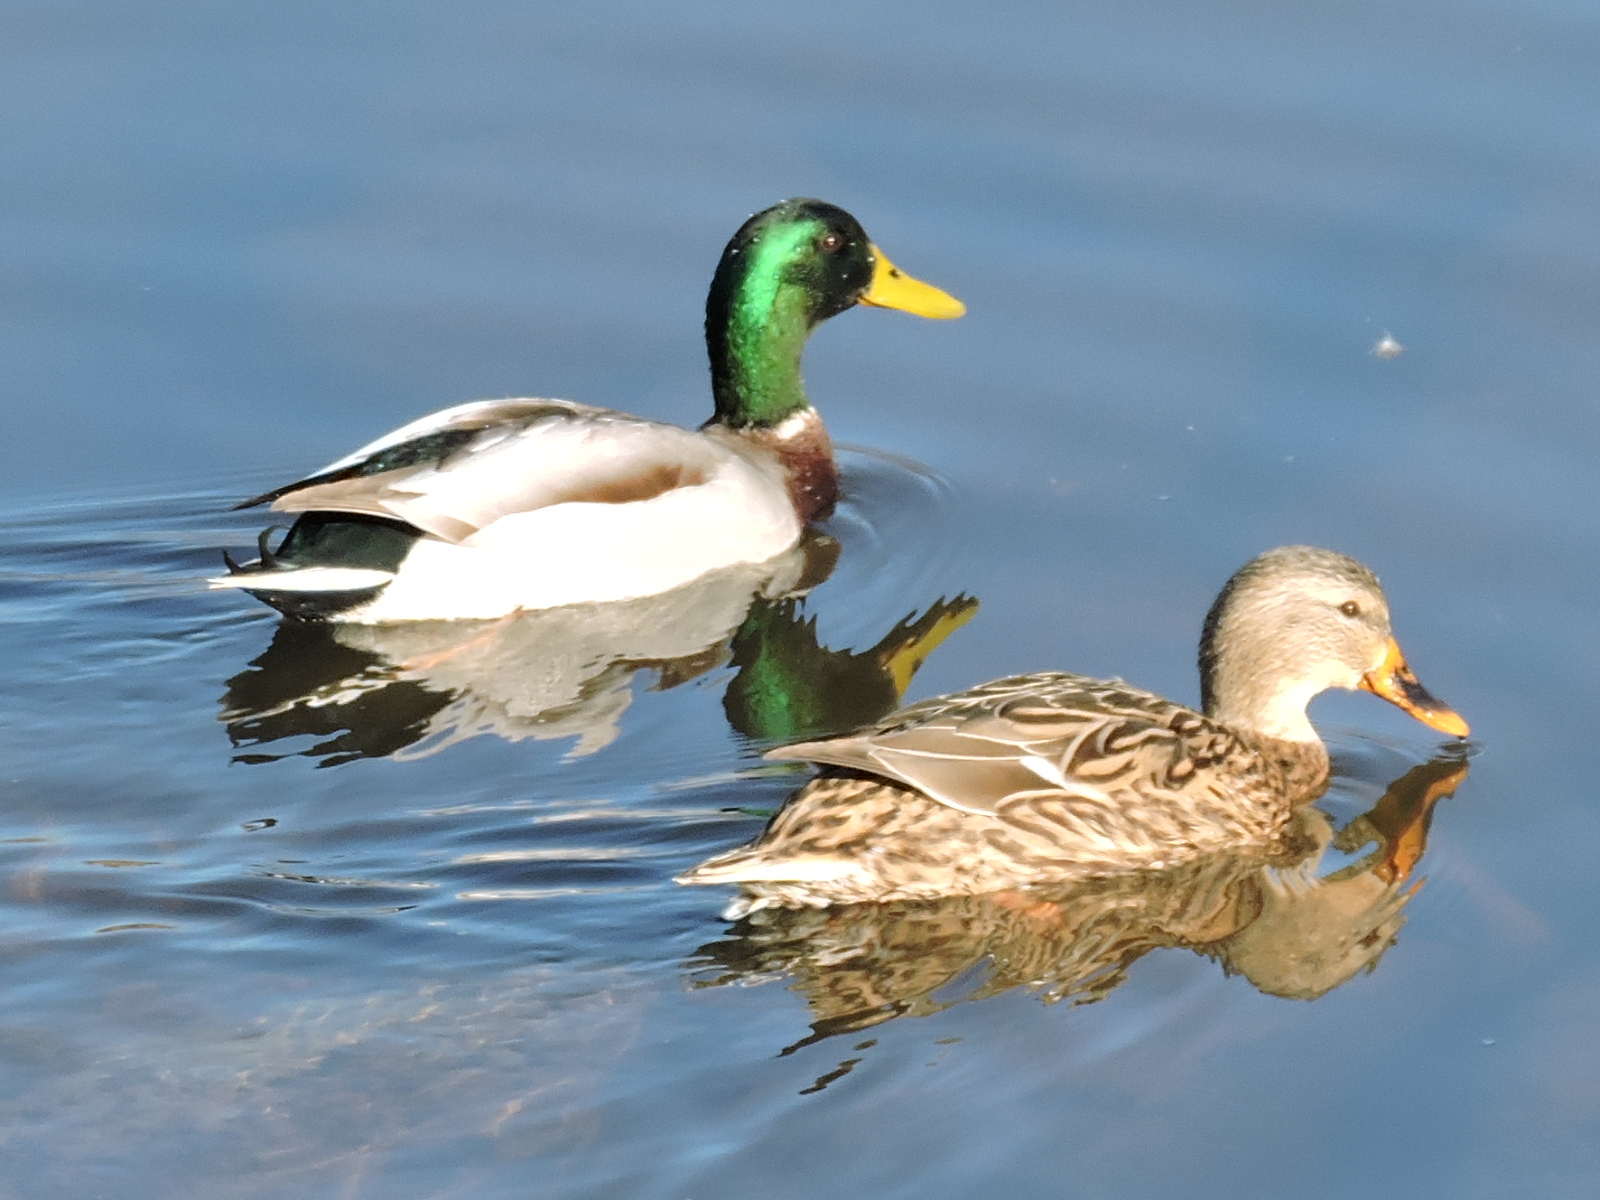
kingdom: Animalia
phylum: Chordata
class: Aves
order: Anseriformes
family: Anatidae
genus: Anas
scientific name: Anas platyrhynchos
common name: Mallard
